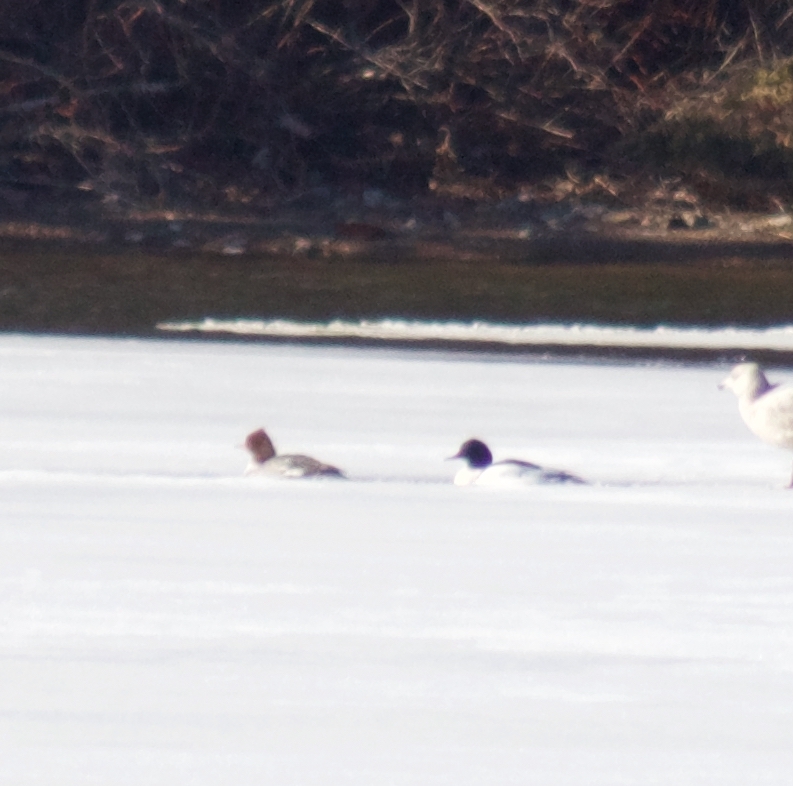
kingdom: Animalia
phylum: Chordata
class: Aves
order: Anseriformes
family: Anatidae
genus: Mergus
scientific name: Mergus merganser
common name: Common merganser
